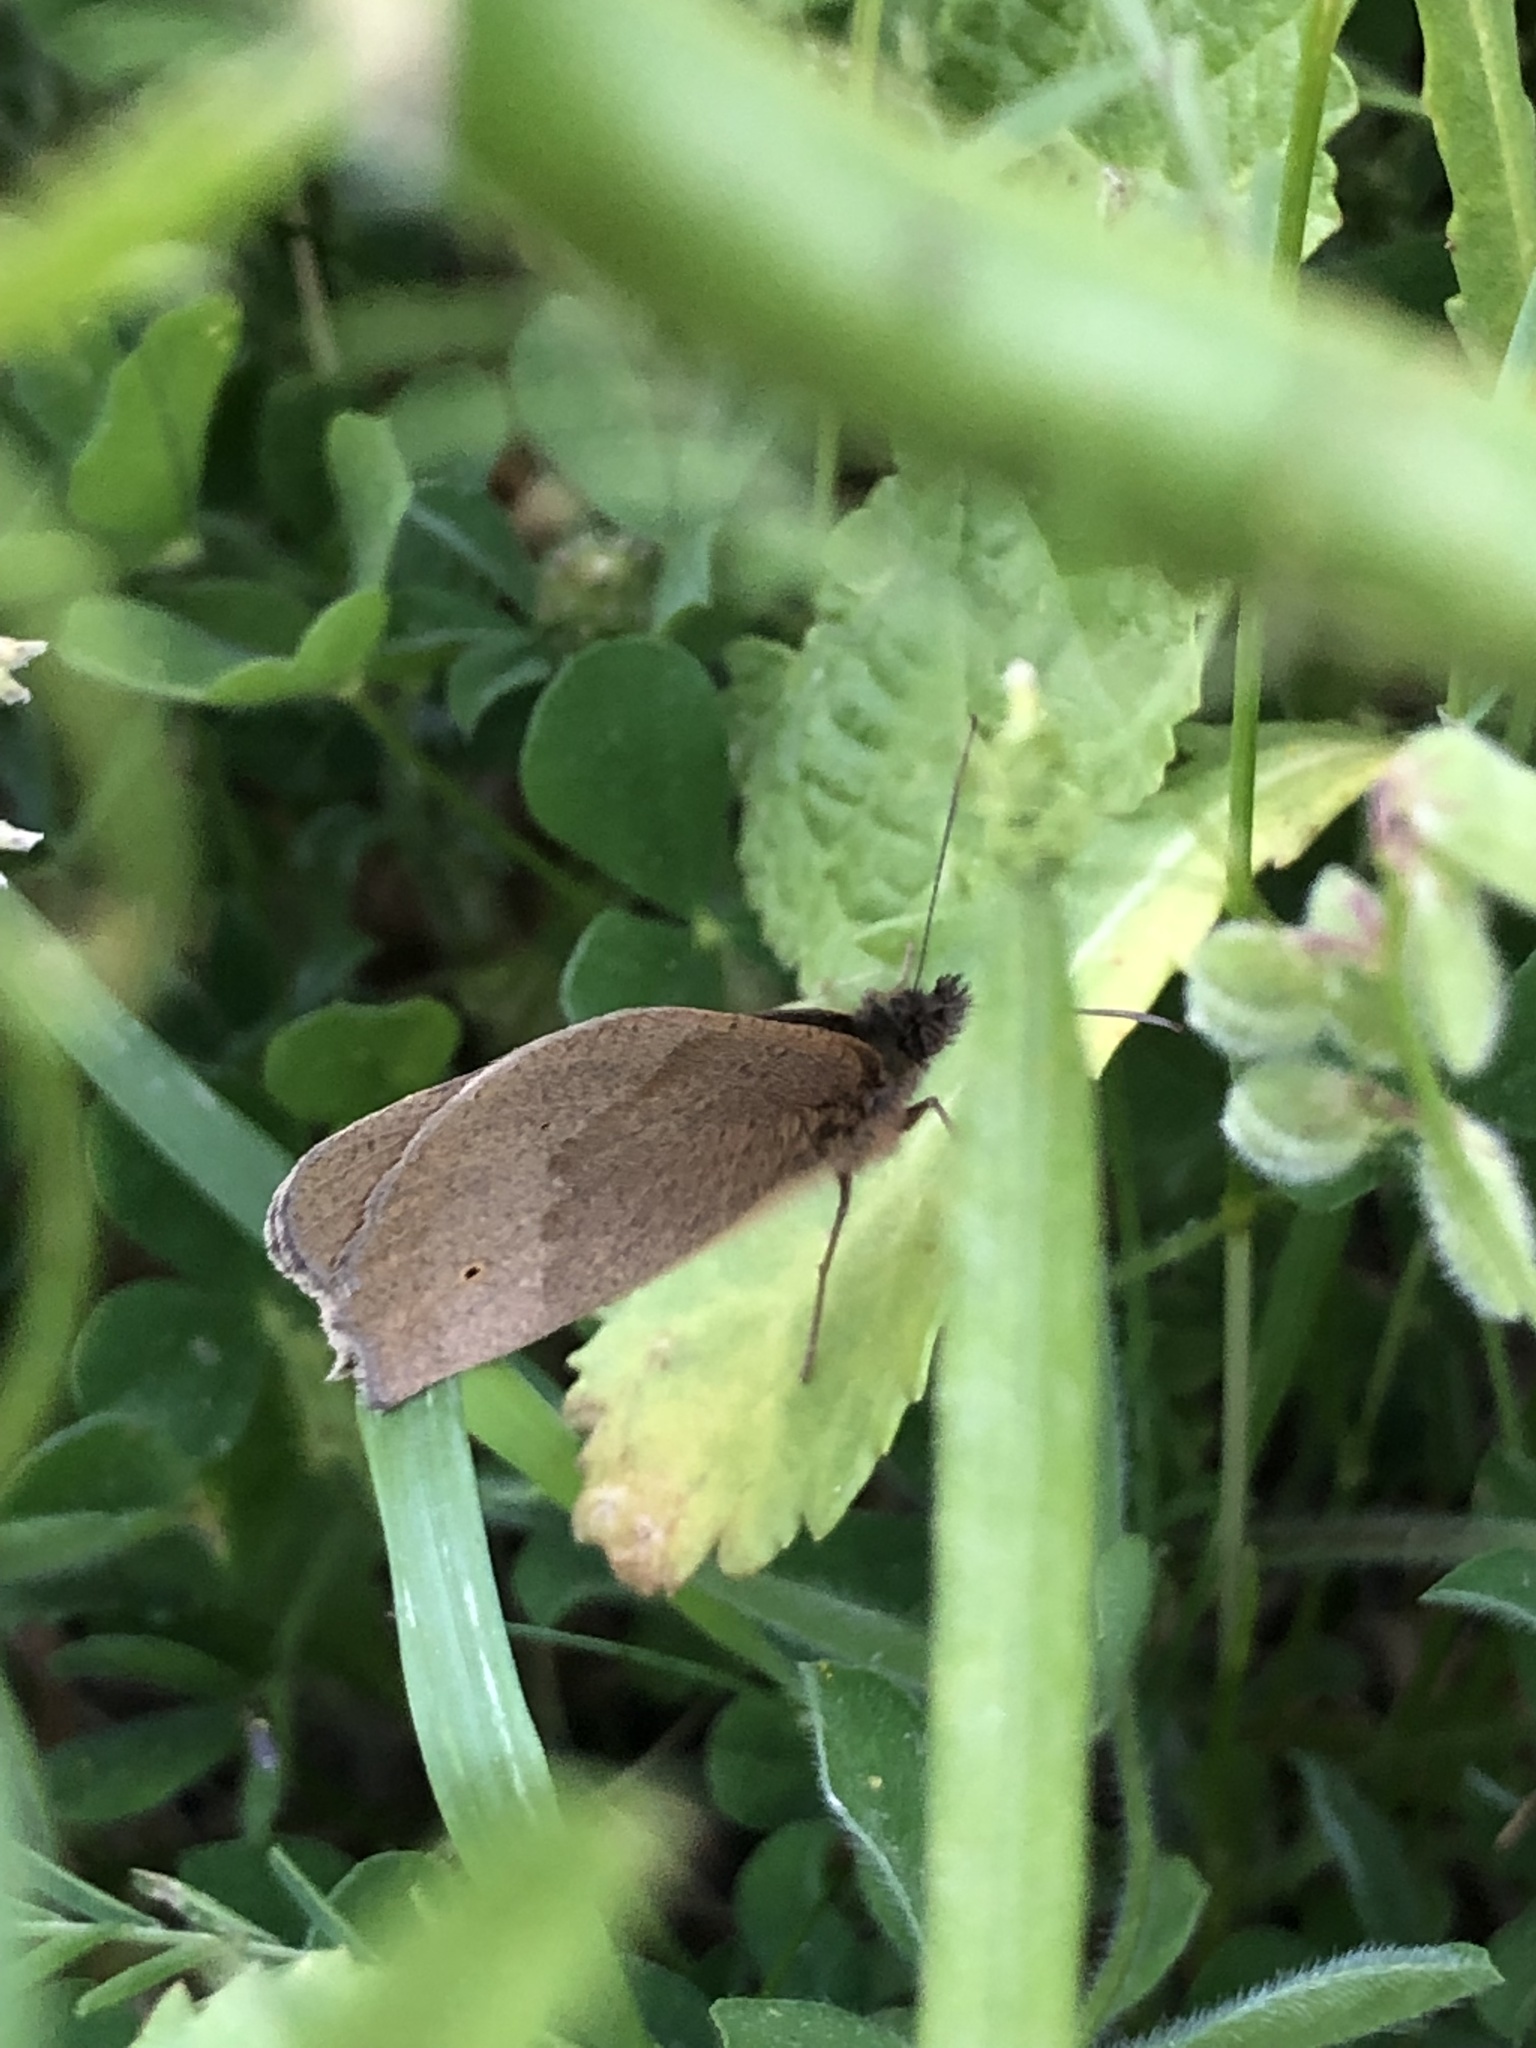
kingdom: Animalia
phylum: Arthropoda
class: Insecta
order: Lepidoptera
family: Nymphalidae
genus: Maniola
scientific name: Maniola jurtina
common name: Meadow brown
